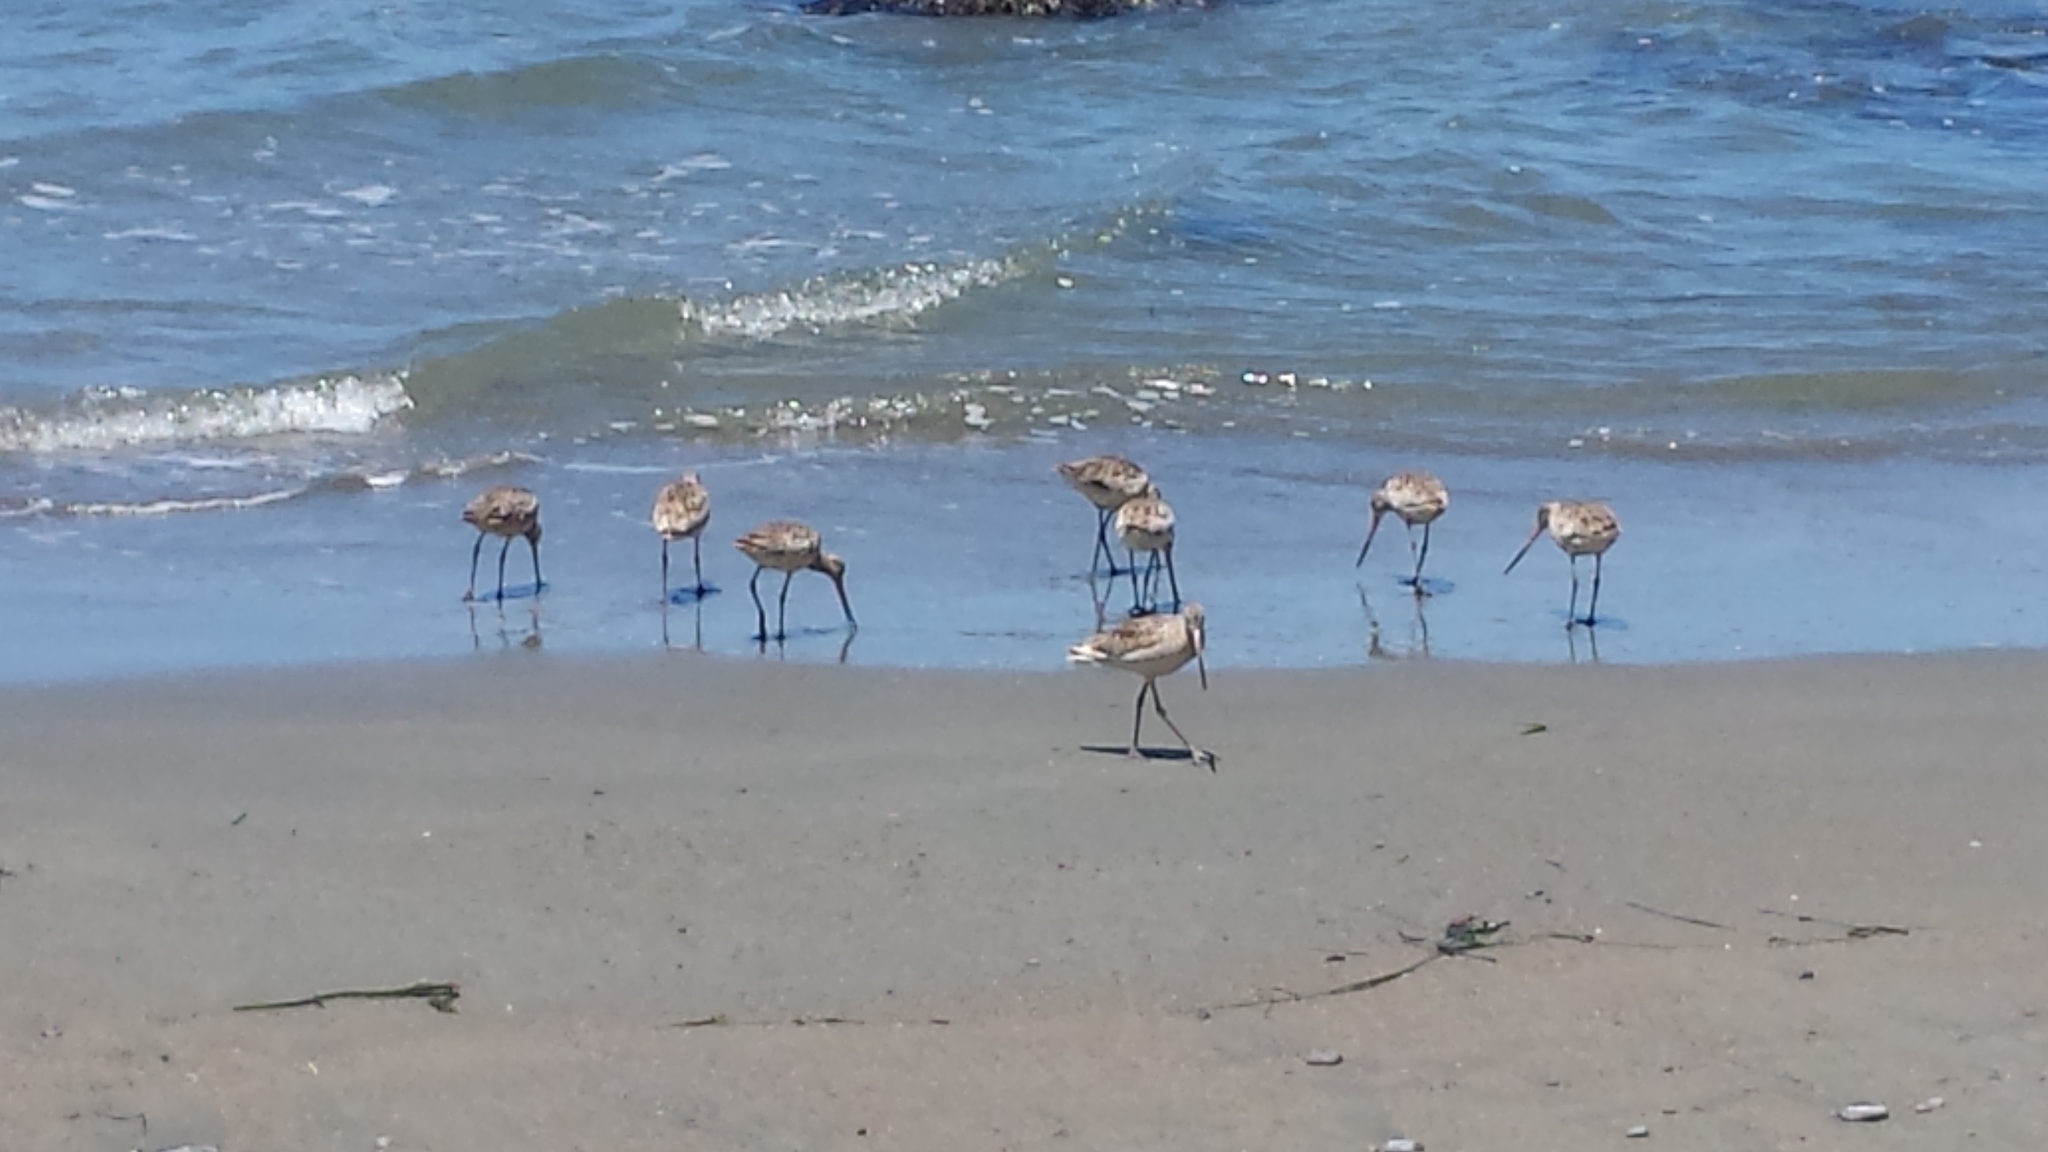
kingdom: Animalia
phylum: Chordata
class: Aves
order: Charadriiformes
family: Scolopacidae
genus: Limosa
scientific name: Limosa fedoa
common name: Marbled godwit
